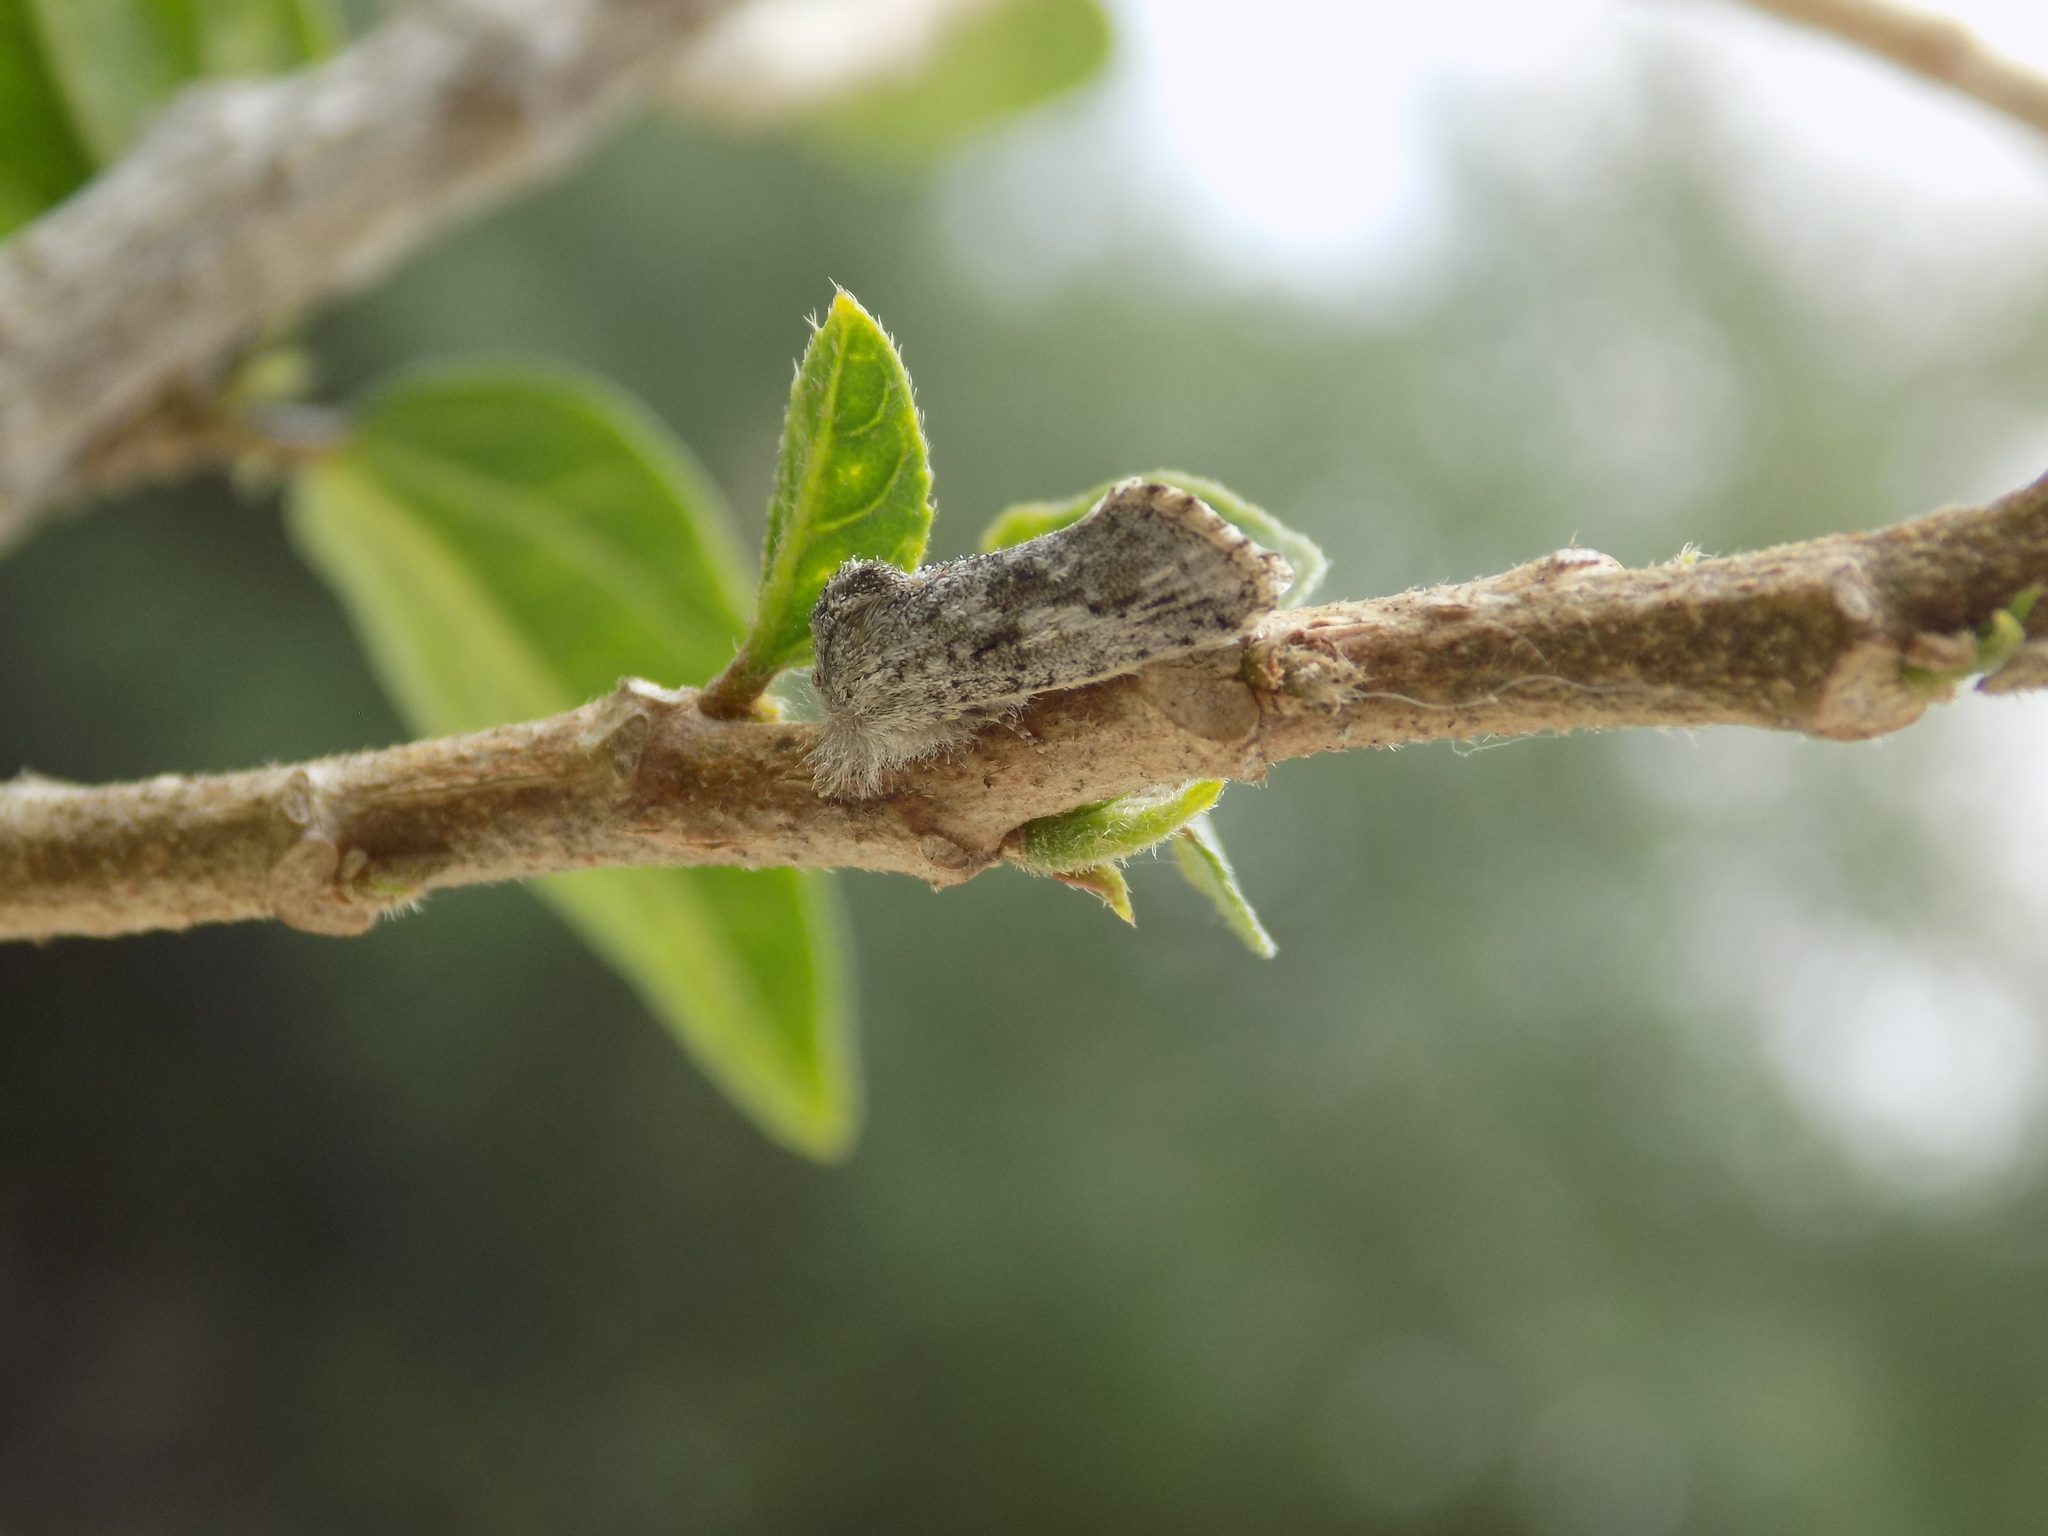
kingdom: Animalia
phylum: Arthropoda
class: Insecta
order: Lepidoptera
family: Tineidae
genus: Acrolophus
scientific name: Acrolophus griseus
